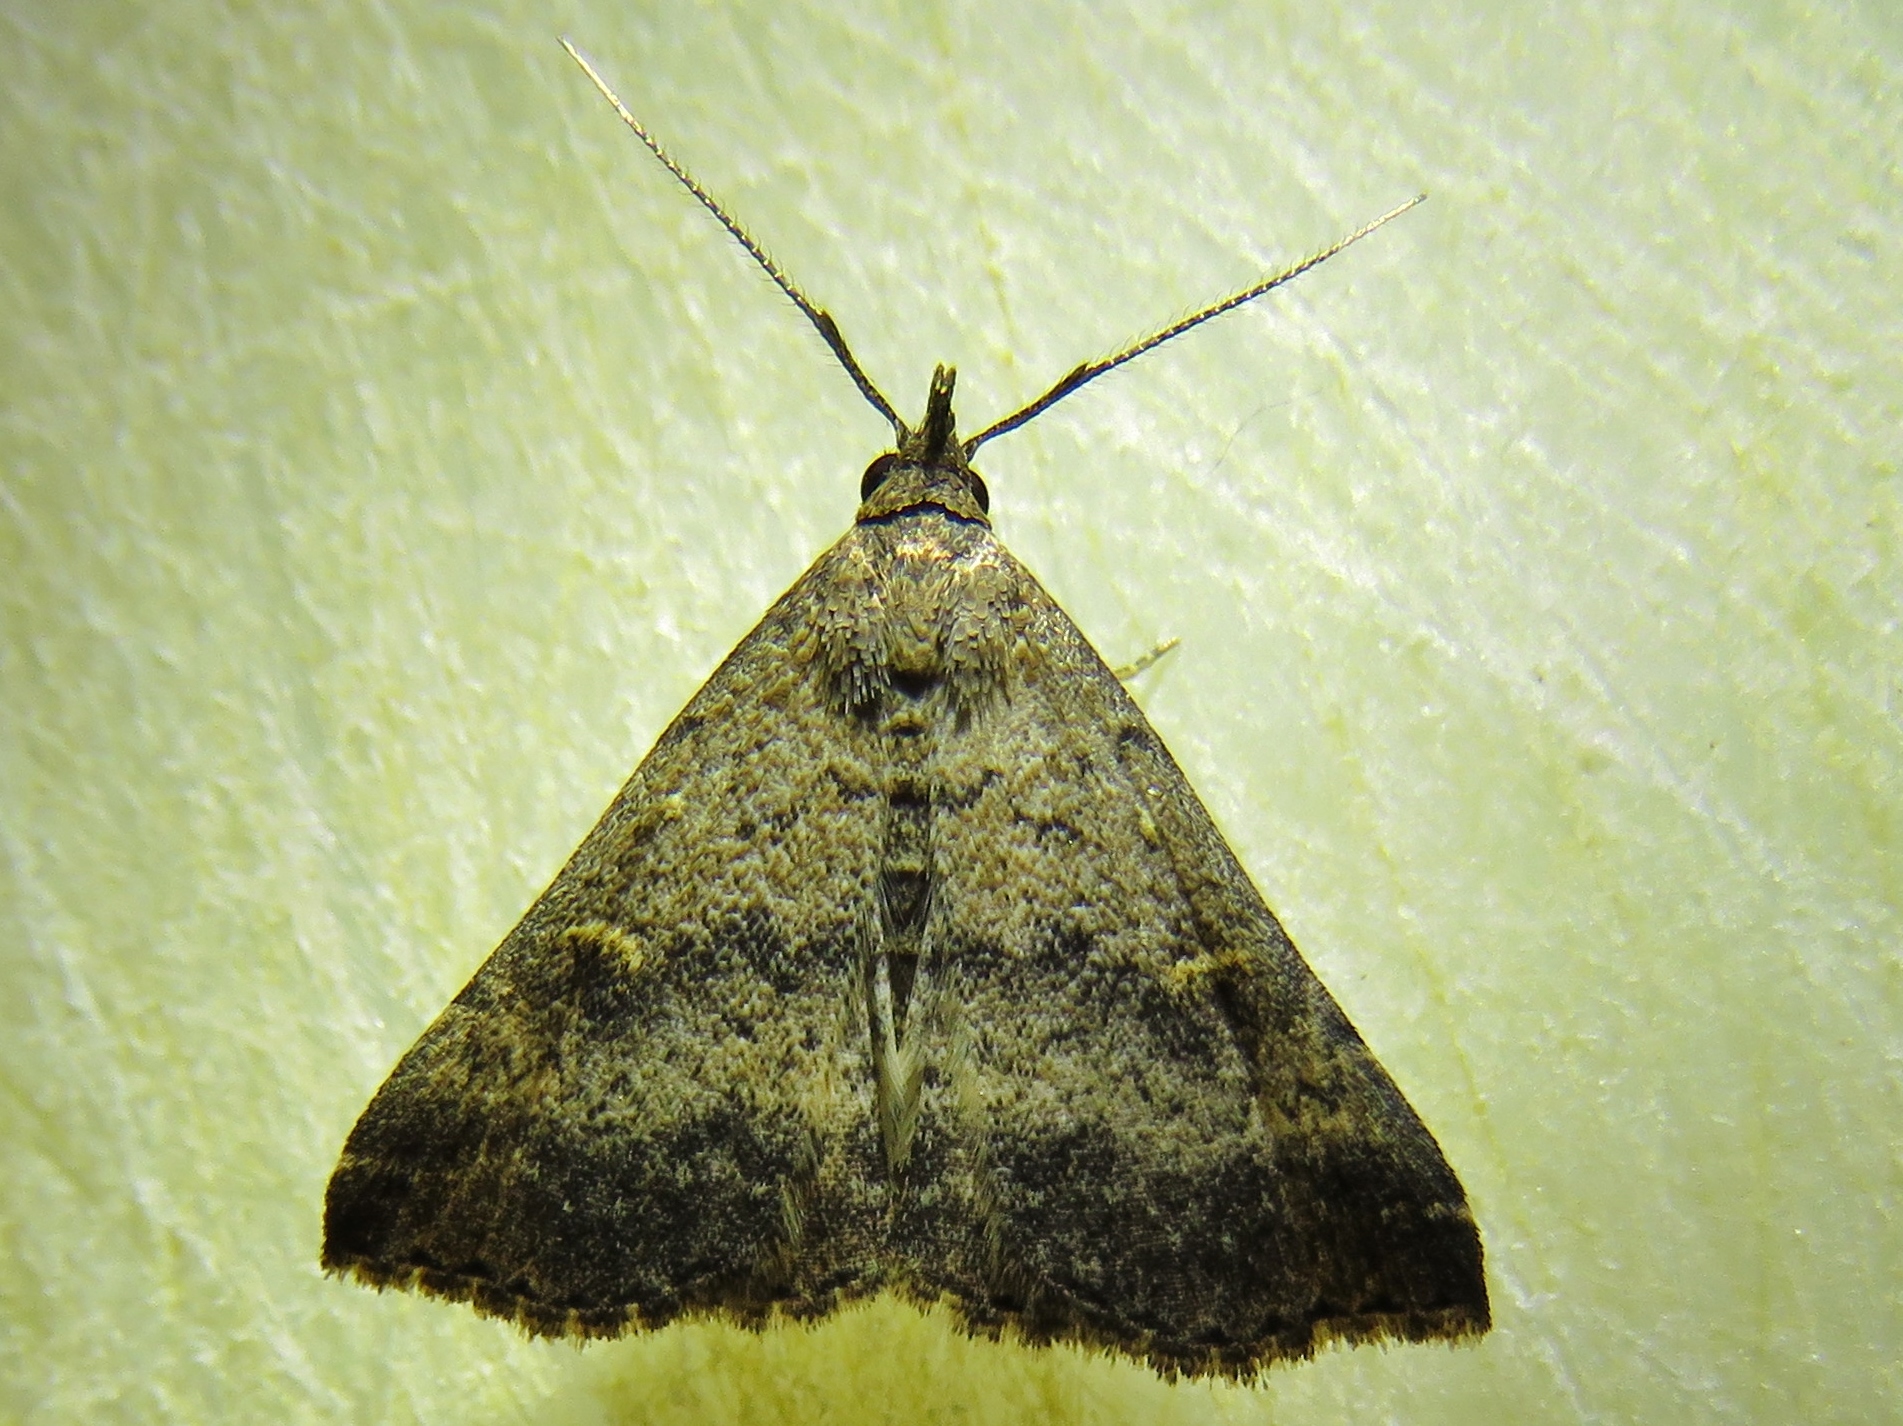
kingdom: Animalia
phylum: Arthropoda
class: Insecta
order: Lepidoptera
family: Erebidae
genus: Tetanolita
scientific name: Tetanolita floridana
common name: Florida tetanolita moth
